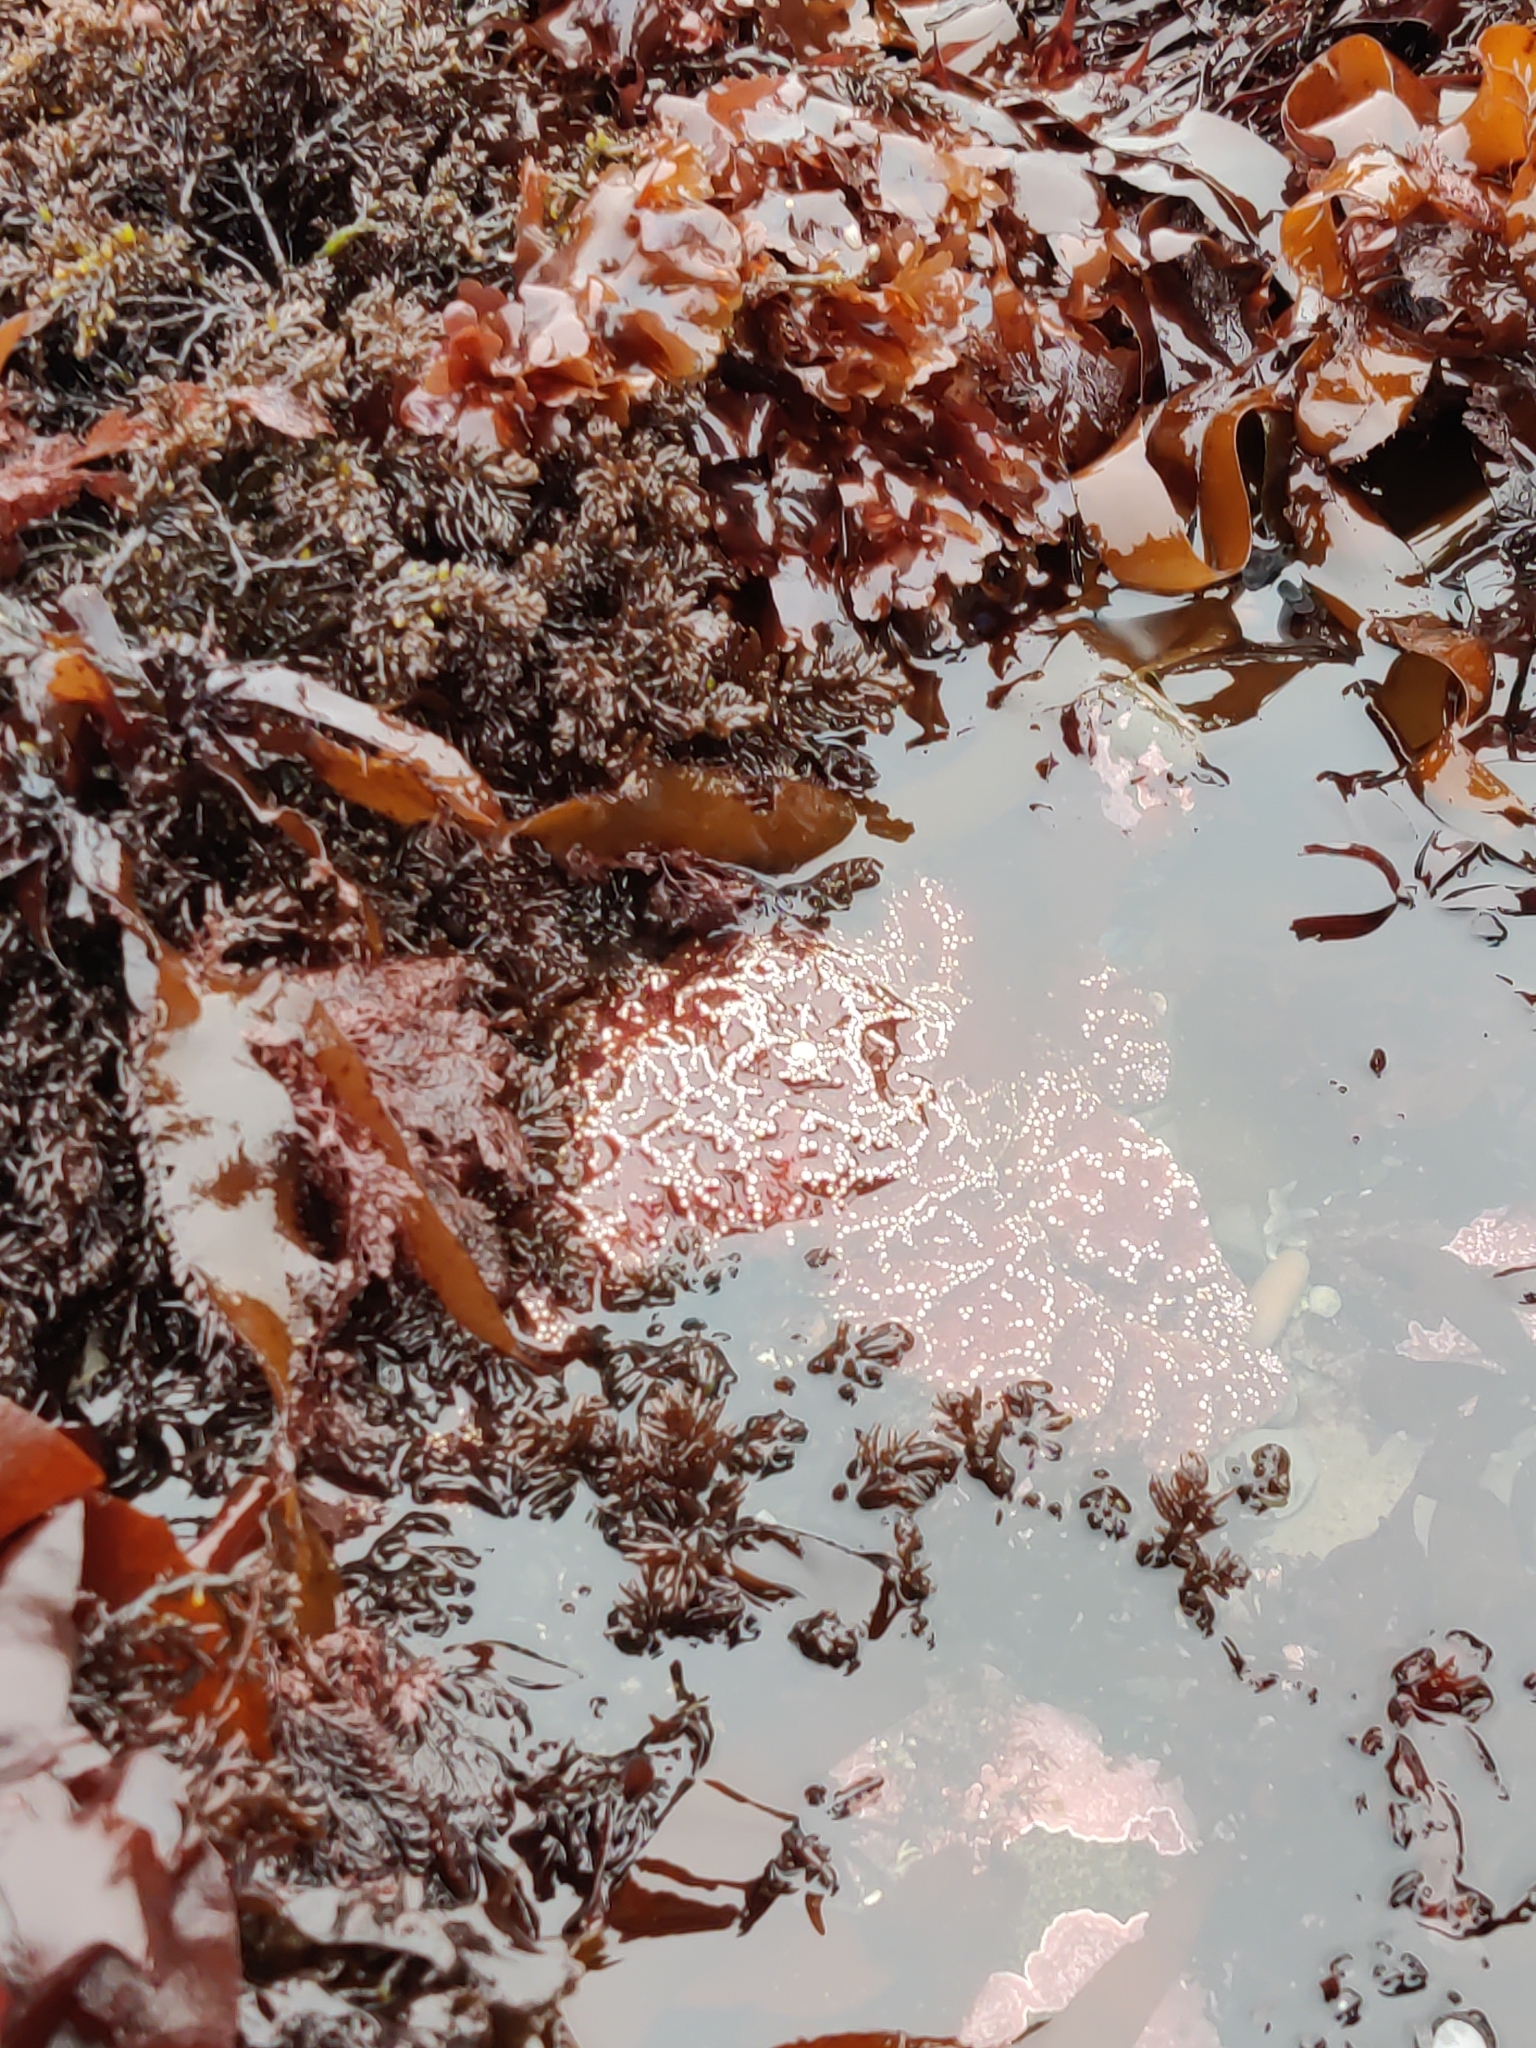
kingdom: Animalia
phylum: Echinodermata
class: Asteroidea
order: Forcipulatida
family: Asteriidae
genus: Pisaster
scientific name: Pisaster ochraceus
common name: Ochre stars
